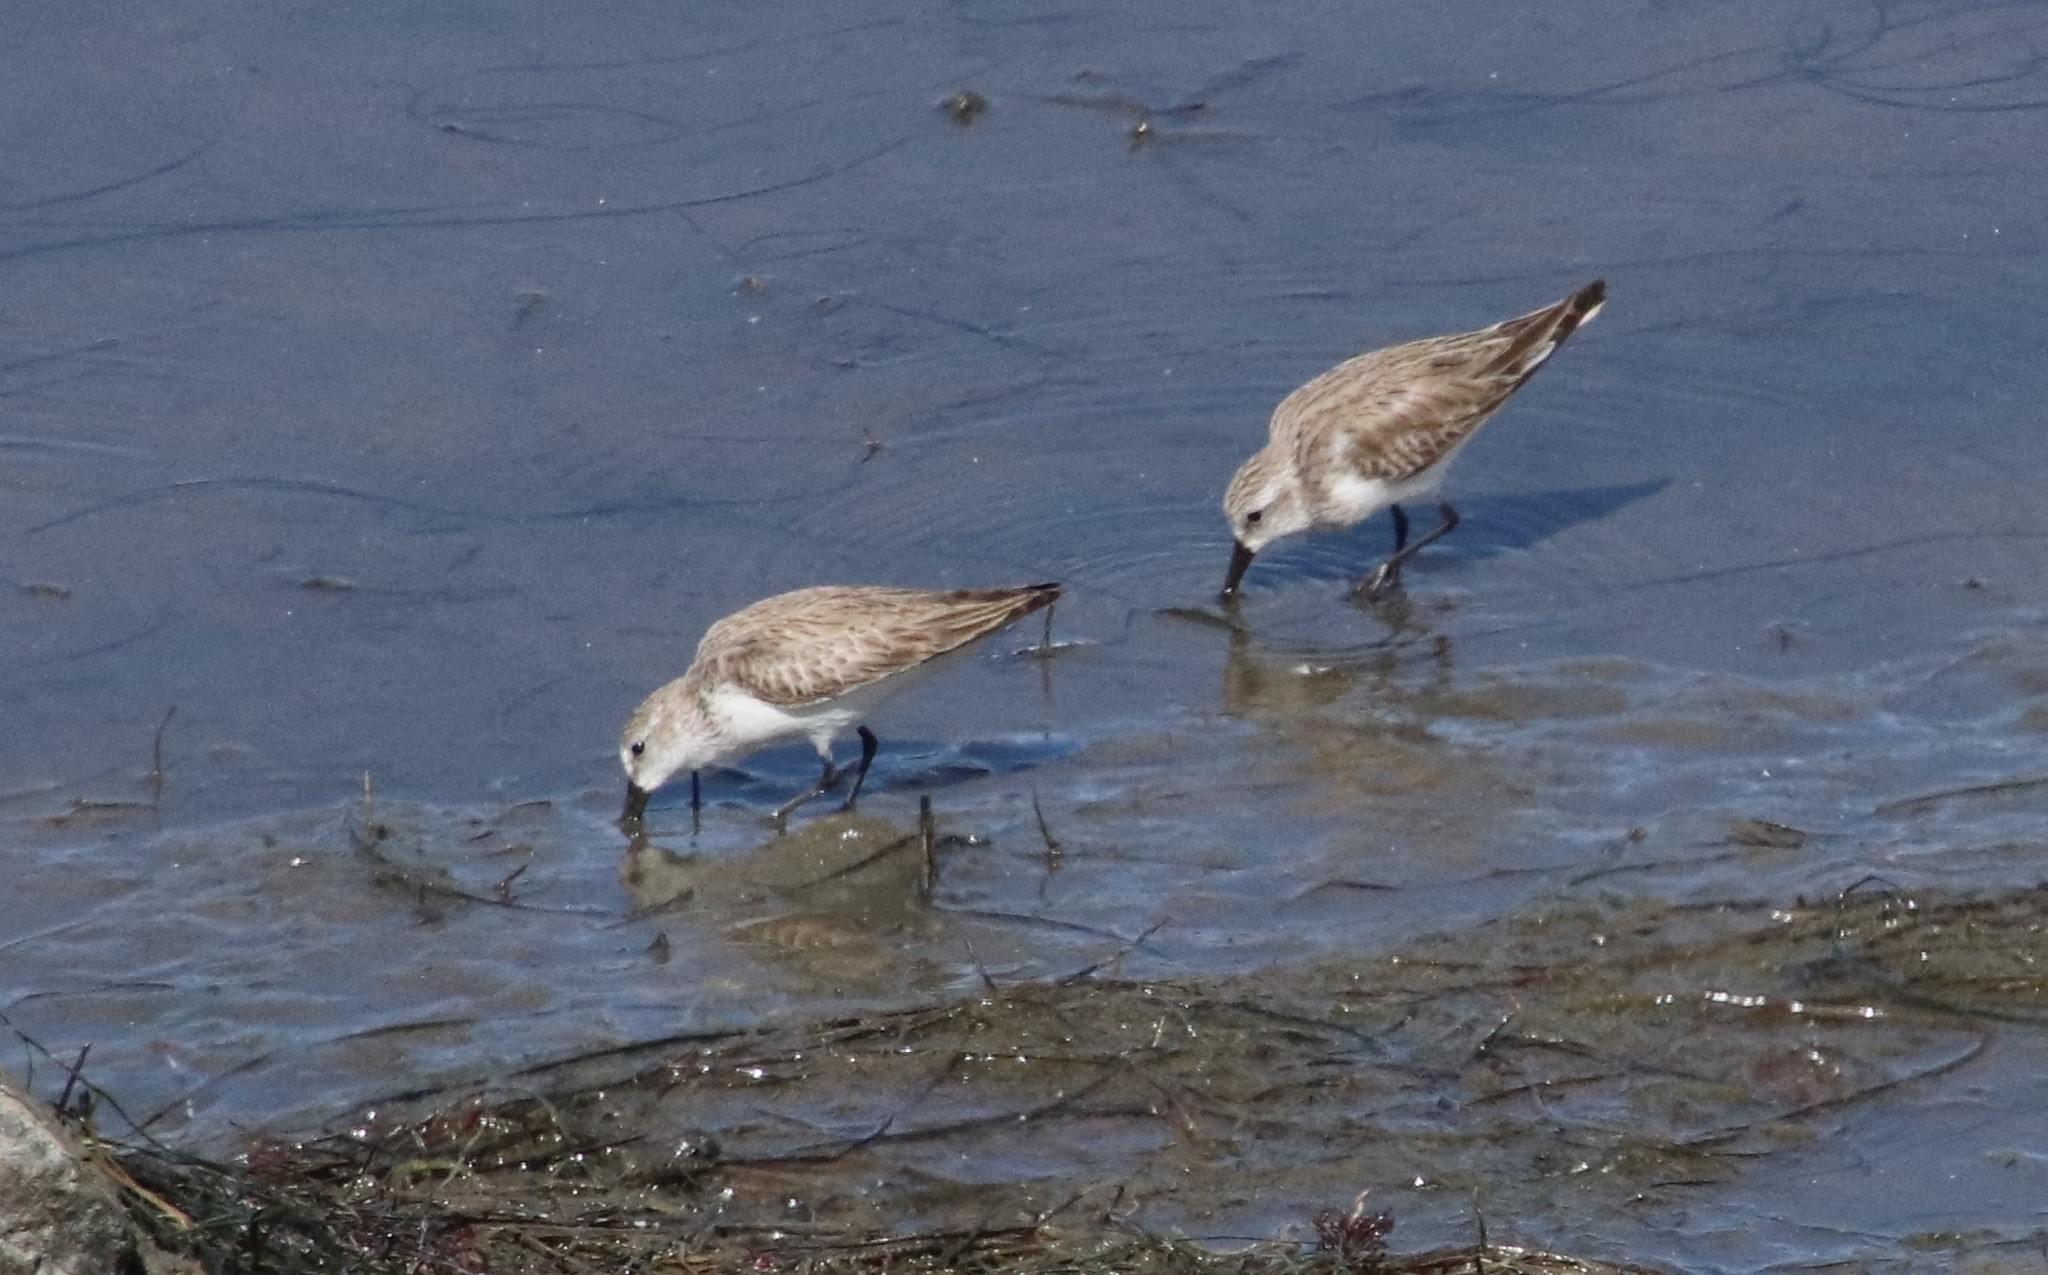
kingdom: Animalia
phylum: Chordata
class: Aves
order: Charadriiformes
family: Scolopacidae
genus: Calidris
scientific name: Calidris mauri
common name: Western sandpiper
